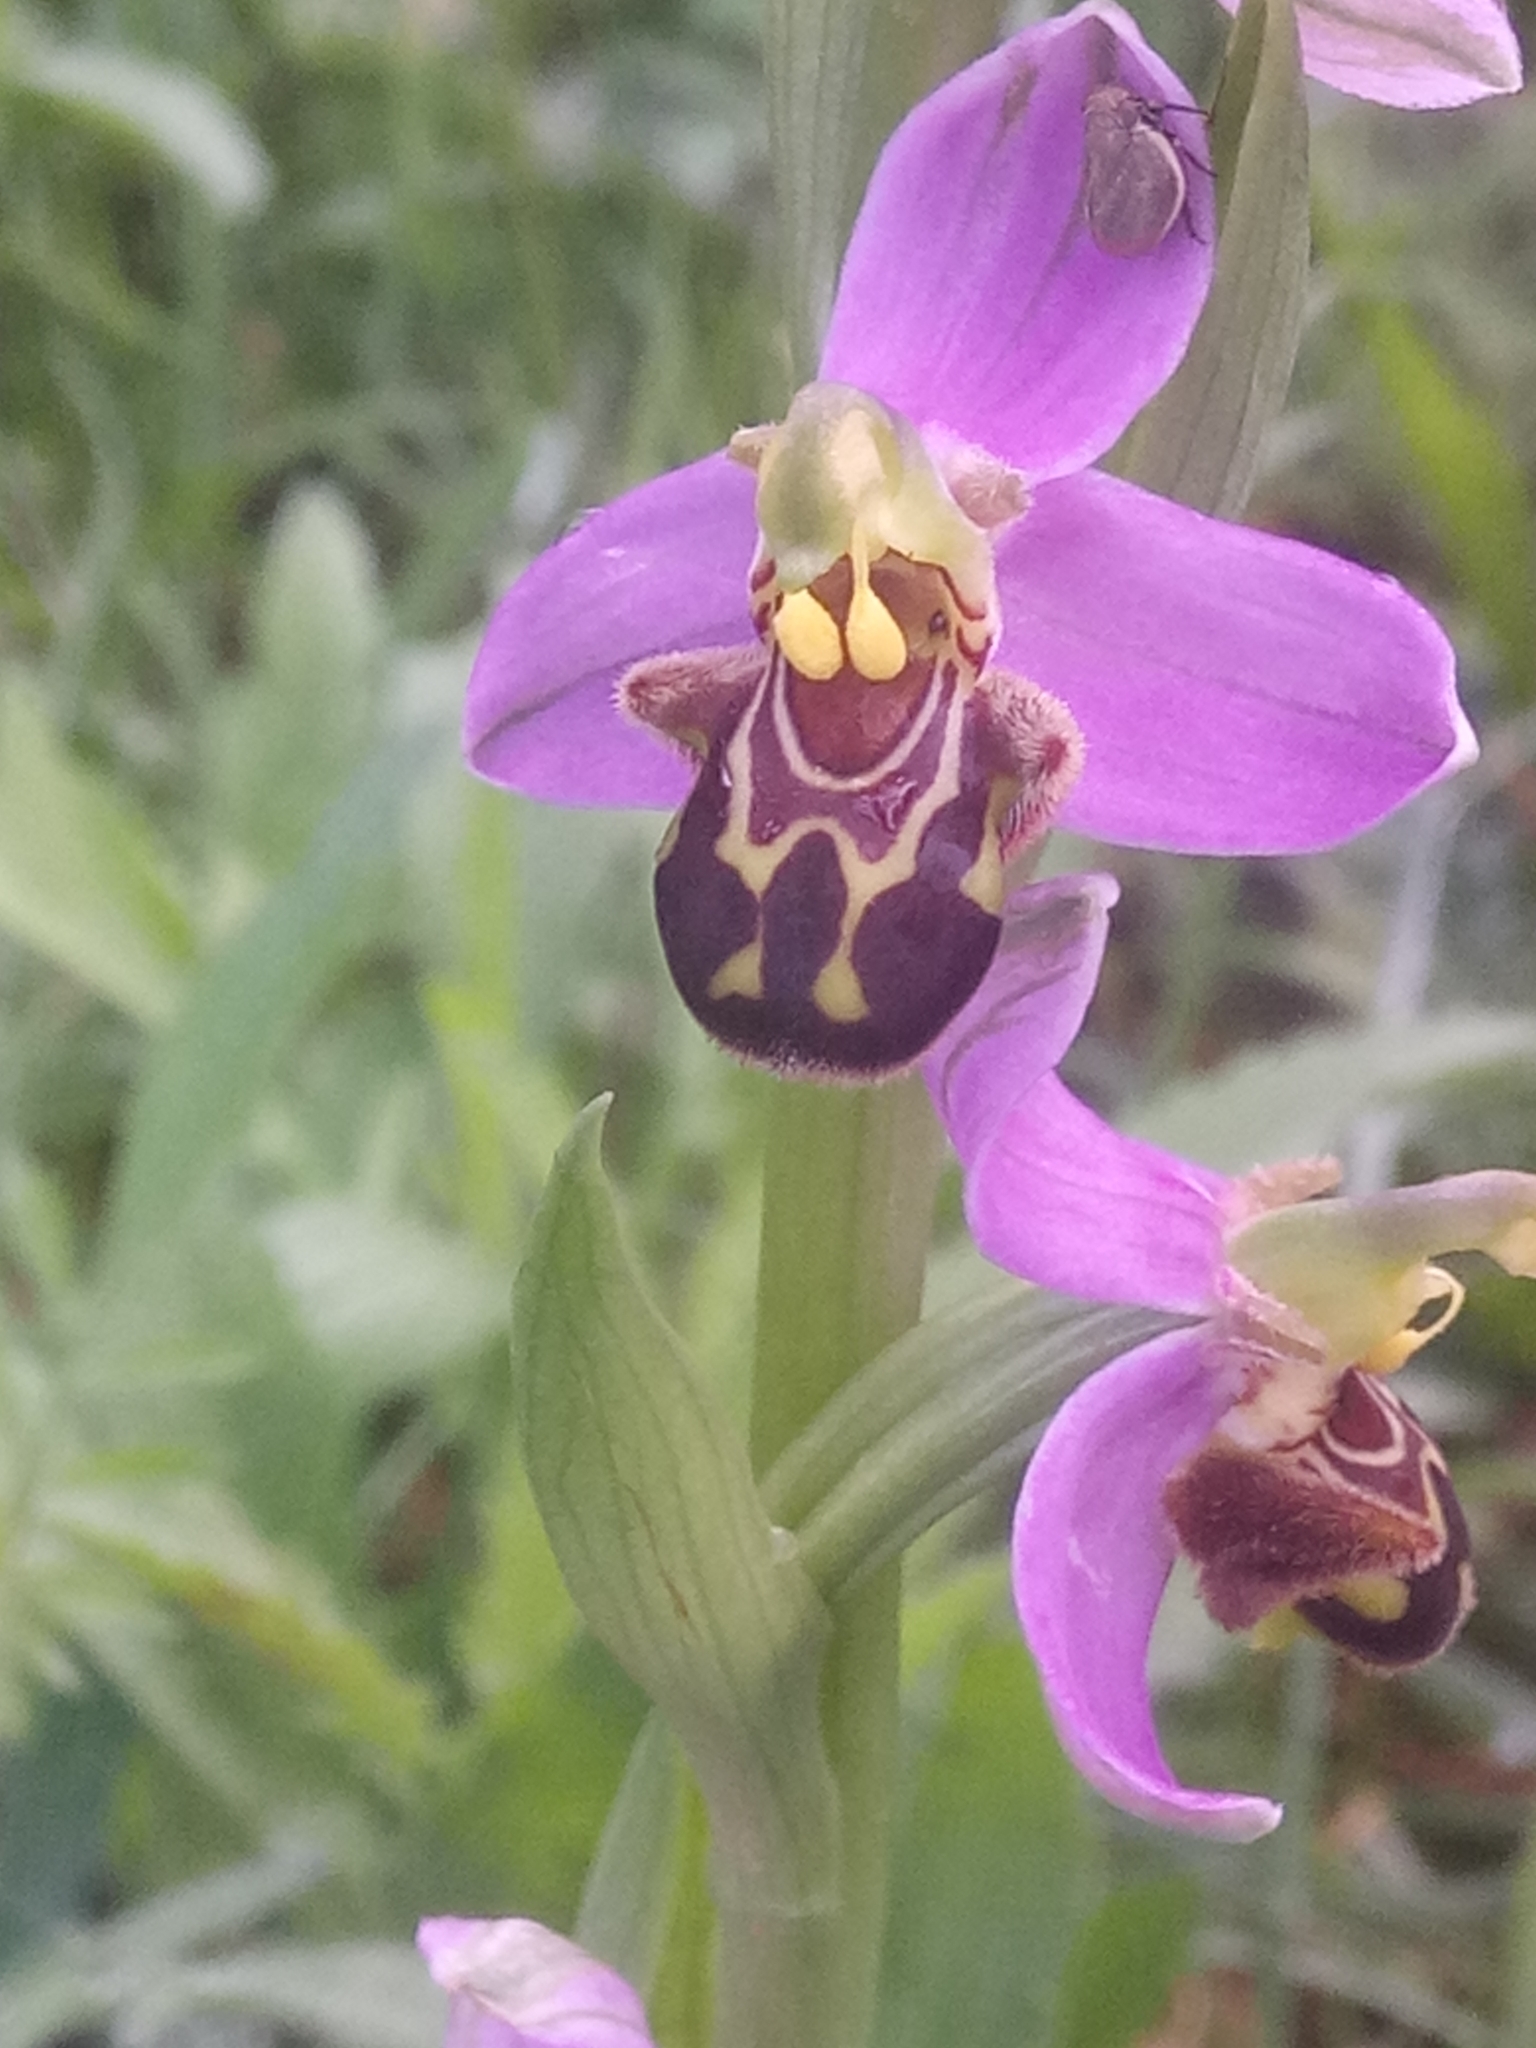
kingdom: Plantae
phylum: Tracheophyta
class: Liliopsida
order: Asparagales
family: Orchidaceae
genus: Ophrys
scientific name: Ophrys apifera
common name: Bee orchid
